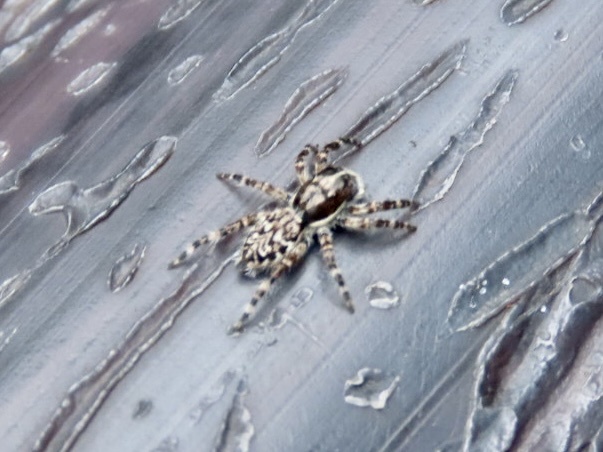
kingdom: Animalia
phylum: Arthropoda
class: Arachnida
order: Araneae
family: Salticidae
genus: Menemerus
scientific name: Menemerus
